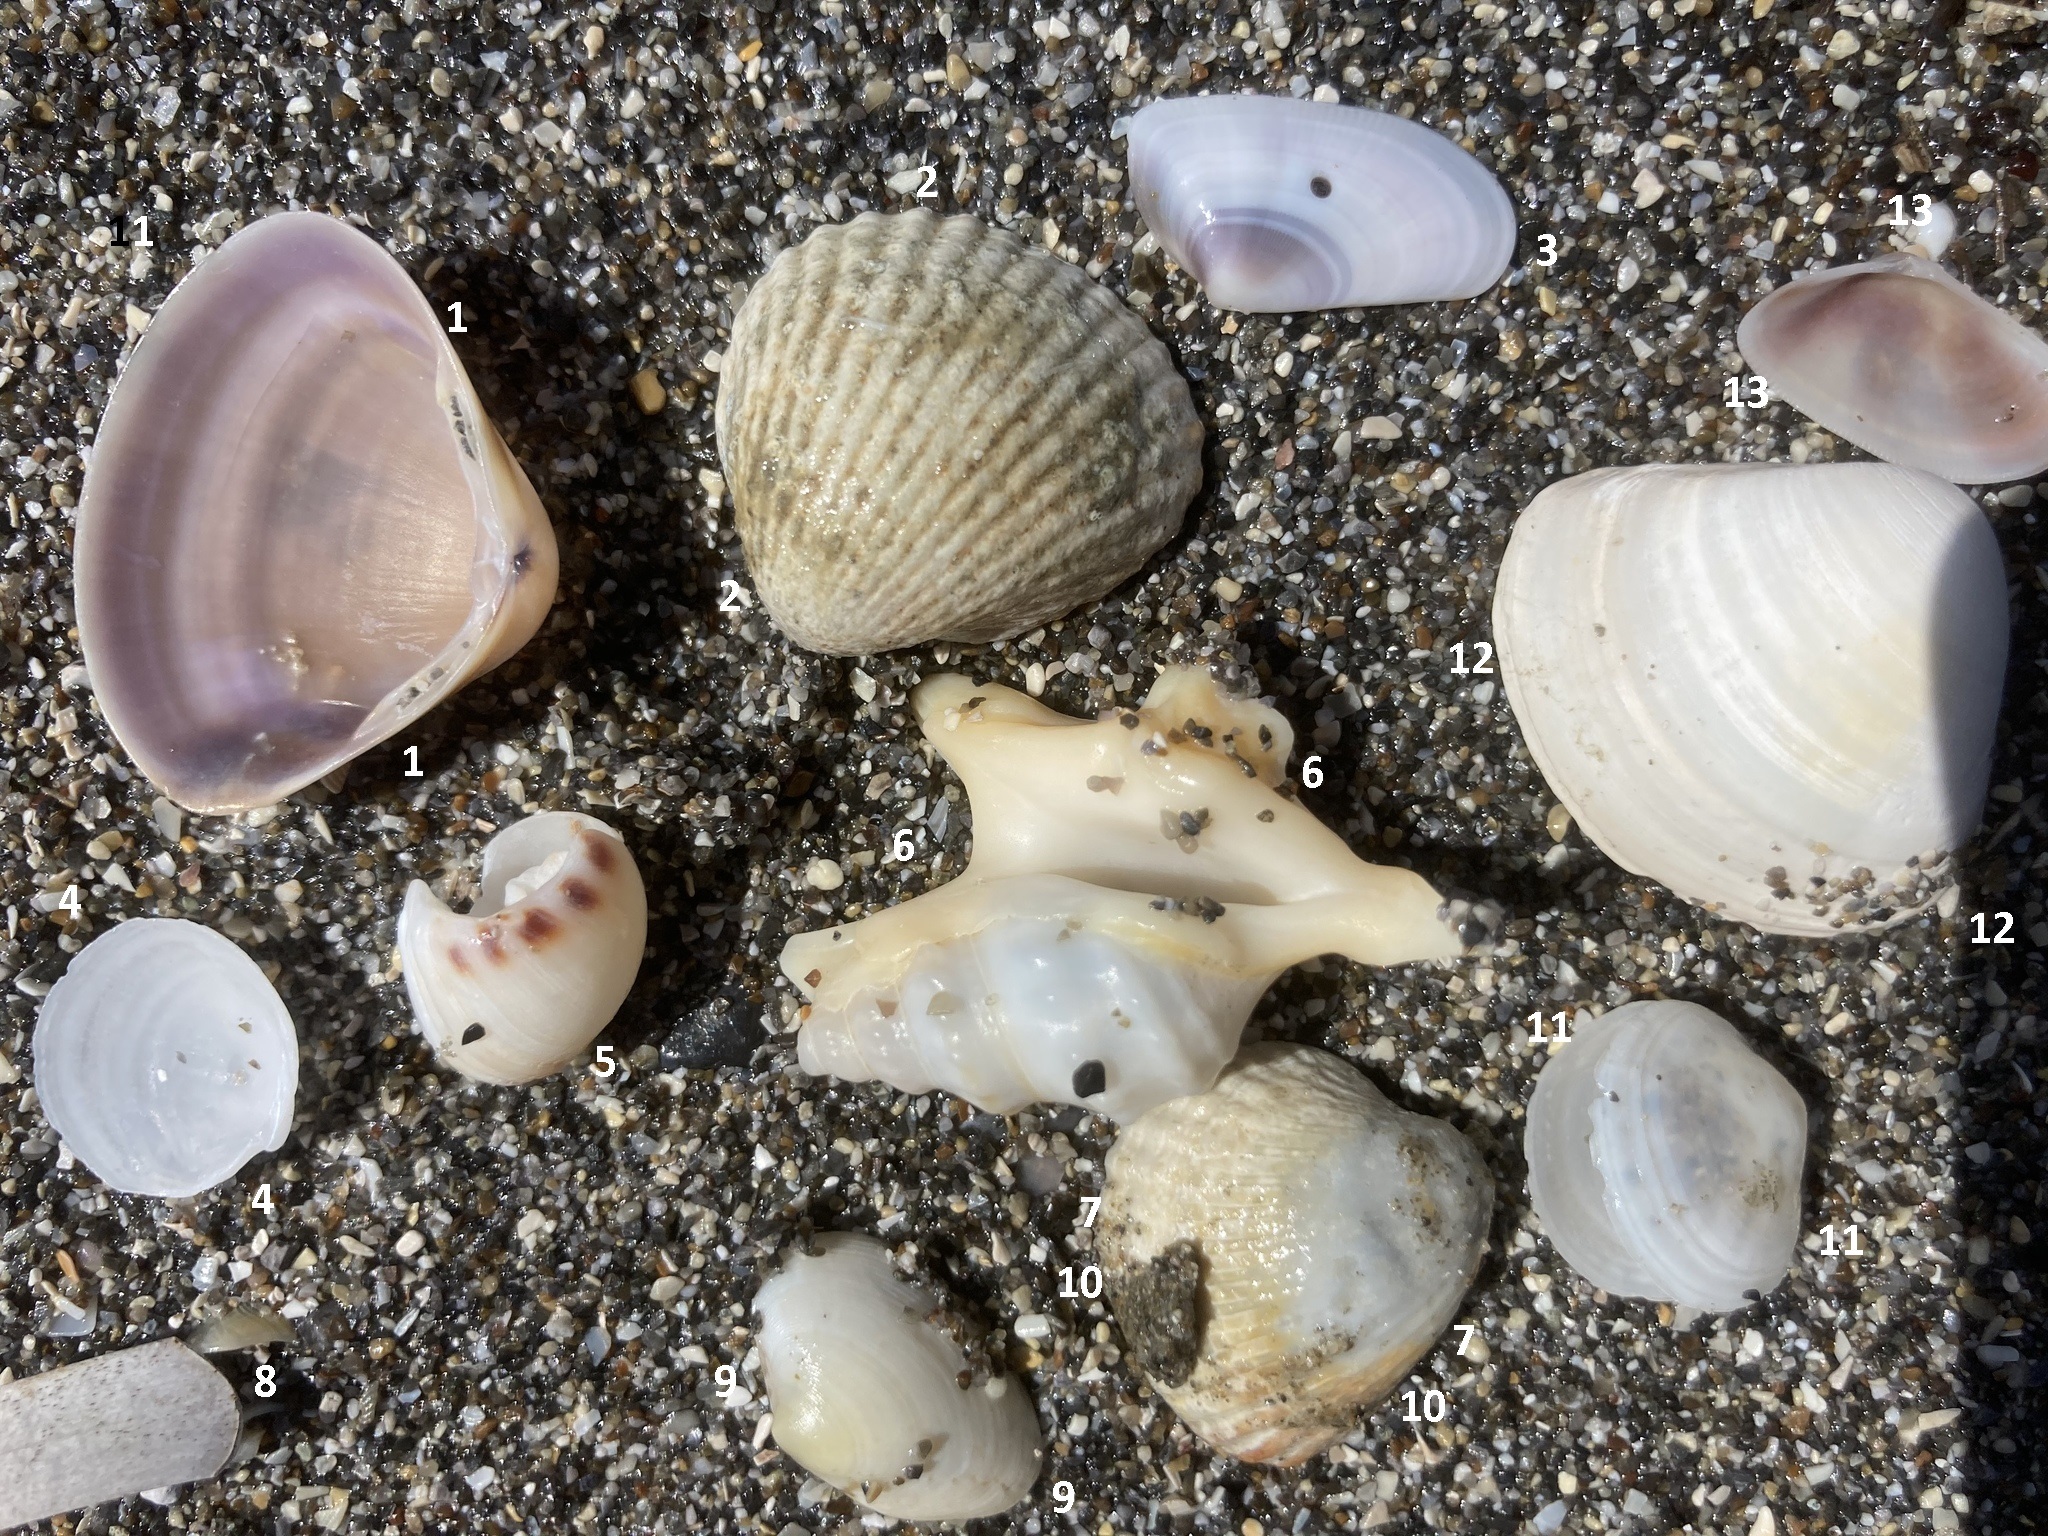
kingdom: Animalia
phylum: Mollusca
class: Gastropoda
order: Littorinimorpha
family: Aporrhaidae
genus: Aporrhais
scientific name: Aporrhais pespelecani
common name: Common pelican’s foot
